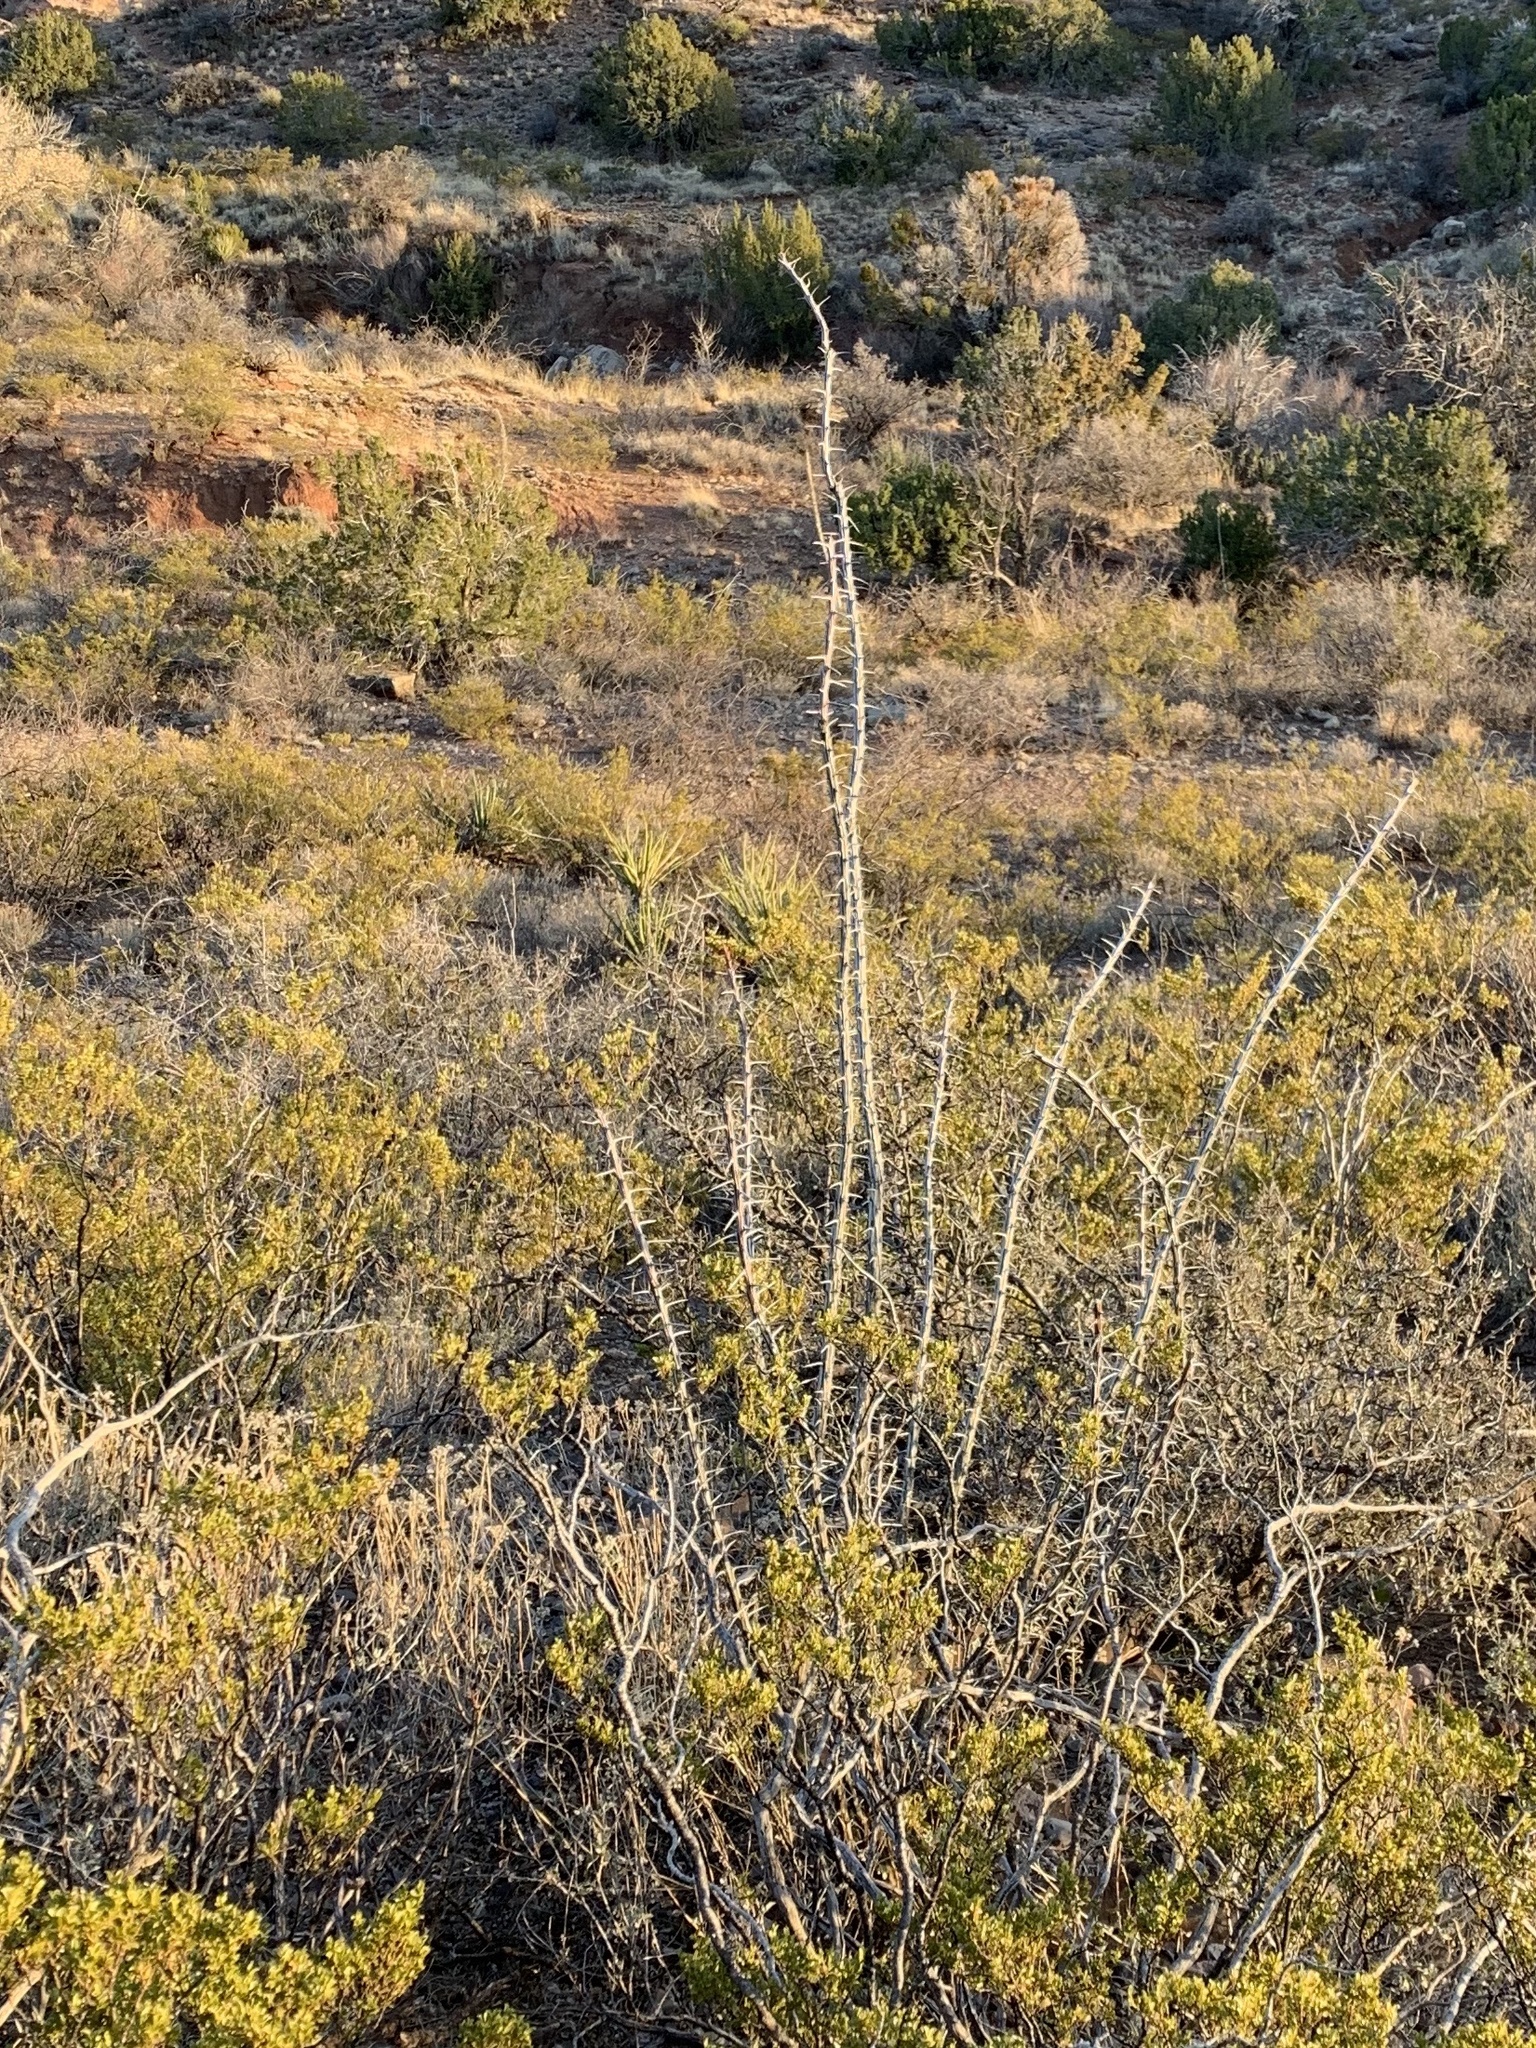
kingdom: Plantae
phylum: Tracheophyta
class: Magnoliopsida
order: Ericales
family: Fouquieriaceae
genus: Fouquieria
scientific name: Fouquieria splendens
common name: Vine-cactus
